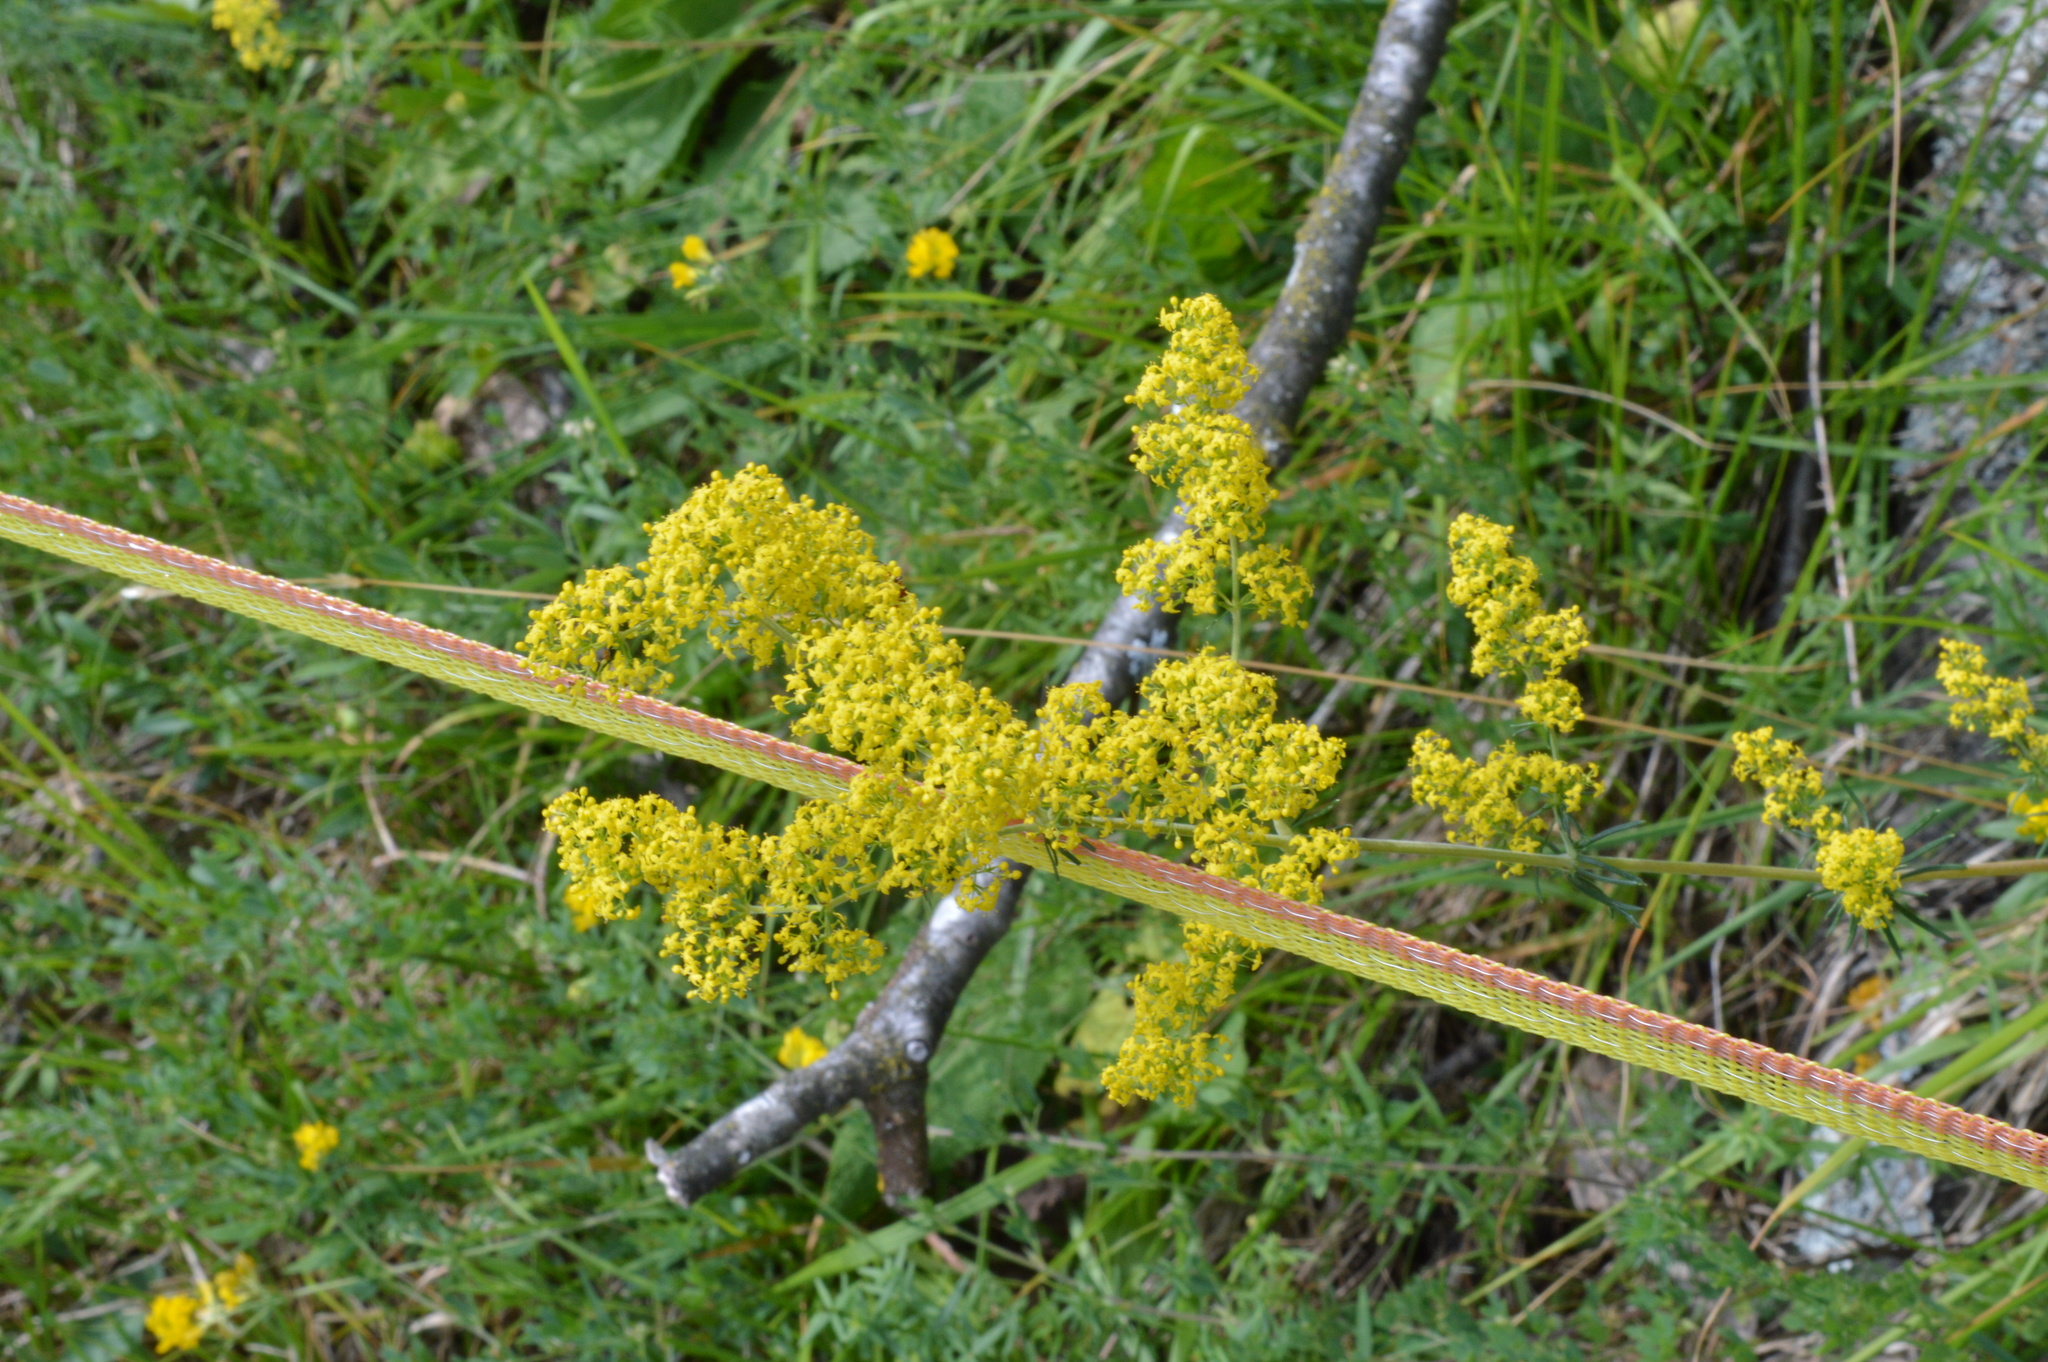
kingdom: Plantae
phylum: Tracheophyta
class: Magnoliopsida
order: Gentianales
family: Rubiaceae
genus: Galium
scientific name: Galium verum
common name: Lady's bedstraw
